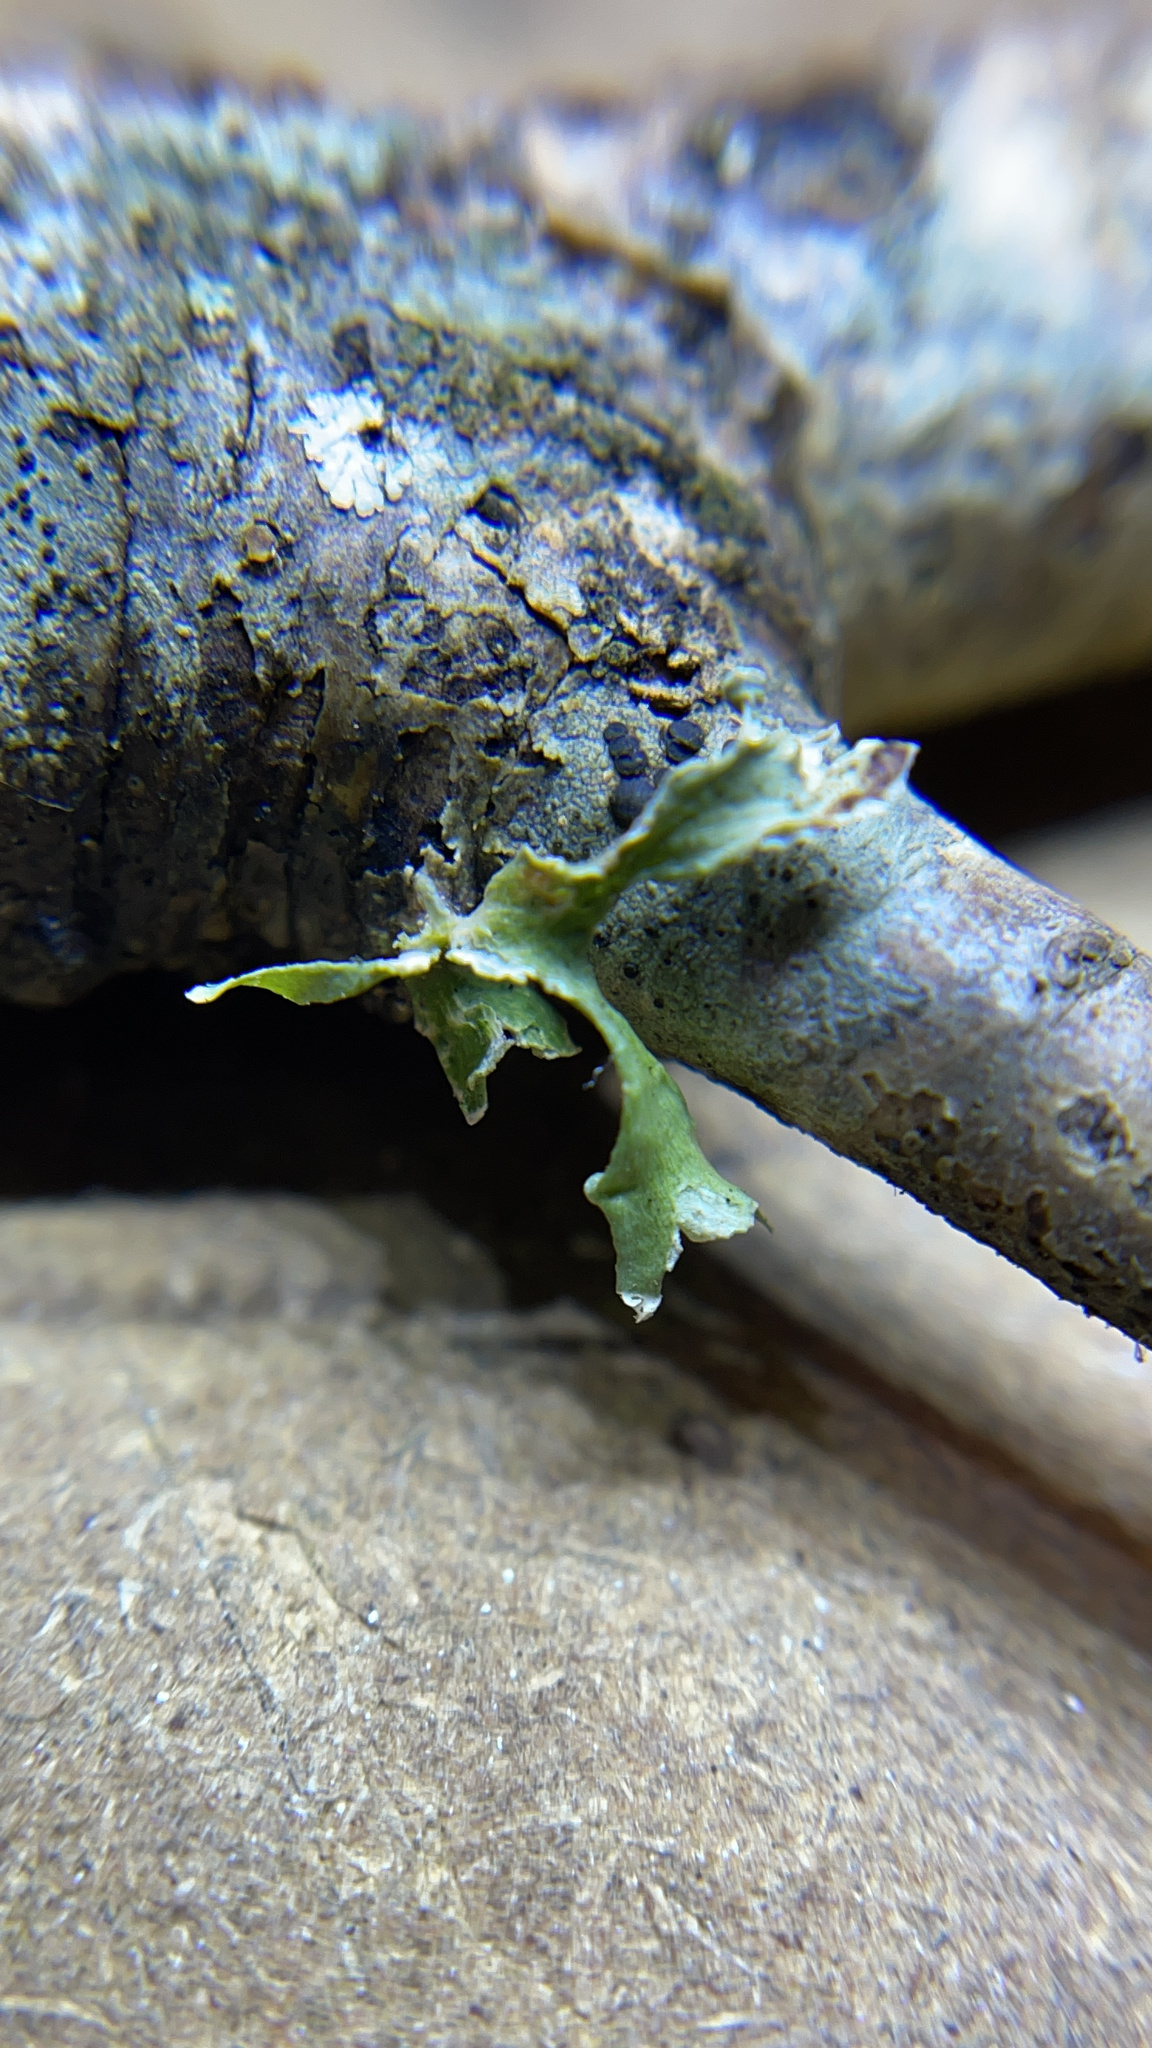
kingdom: Fungi
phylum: Ascomycota
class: Lecanoromycetes
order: Lecanorales
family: Ramalinaceae
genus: Ramalina
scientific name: Ramalina
